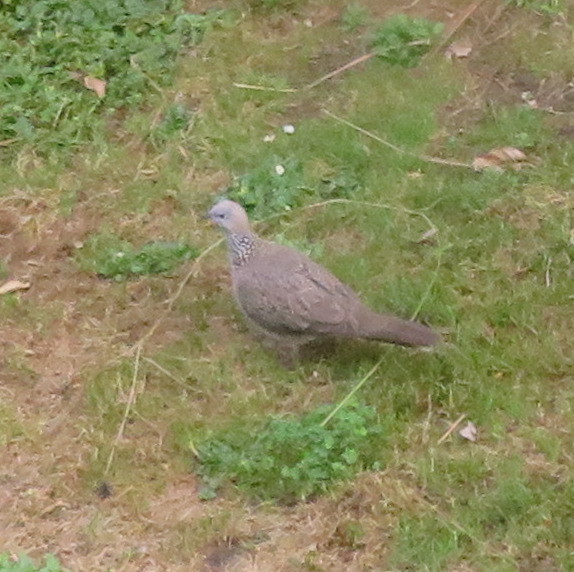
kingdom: Animalia
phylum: Chordata
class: Aves
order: Columbiformes
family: Columbidae
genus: Spilopelia
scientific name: Spilopelia chinensis
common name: Spotted dove
